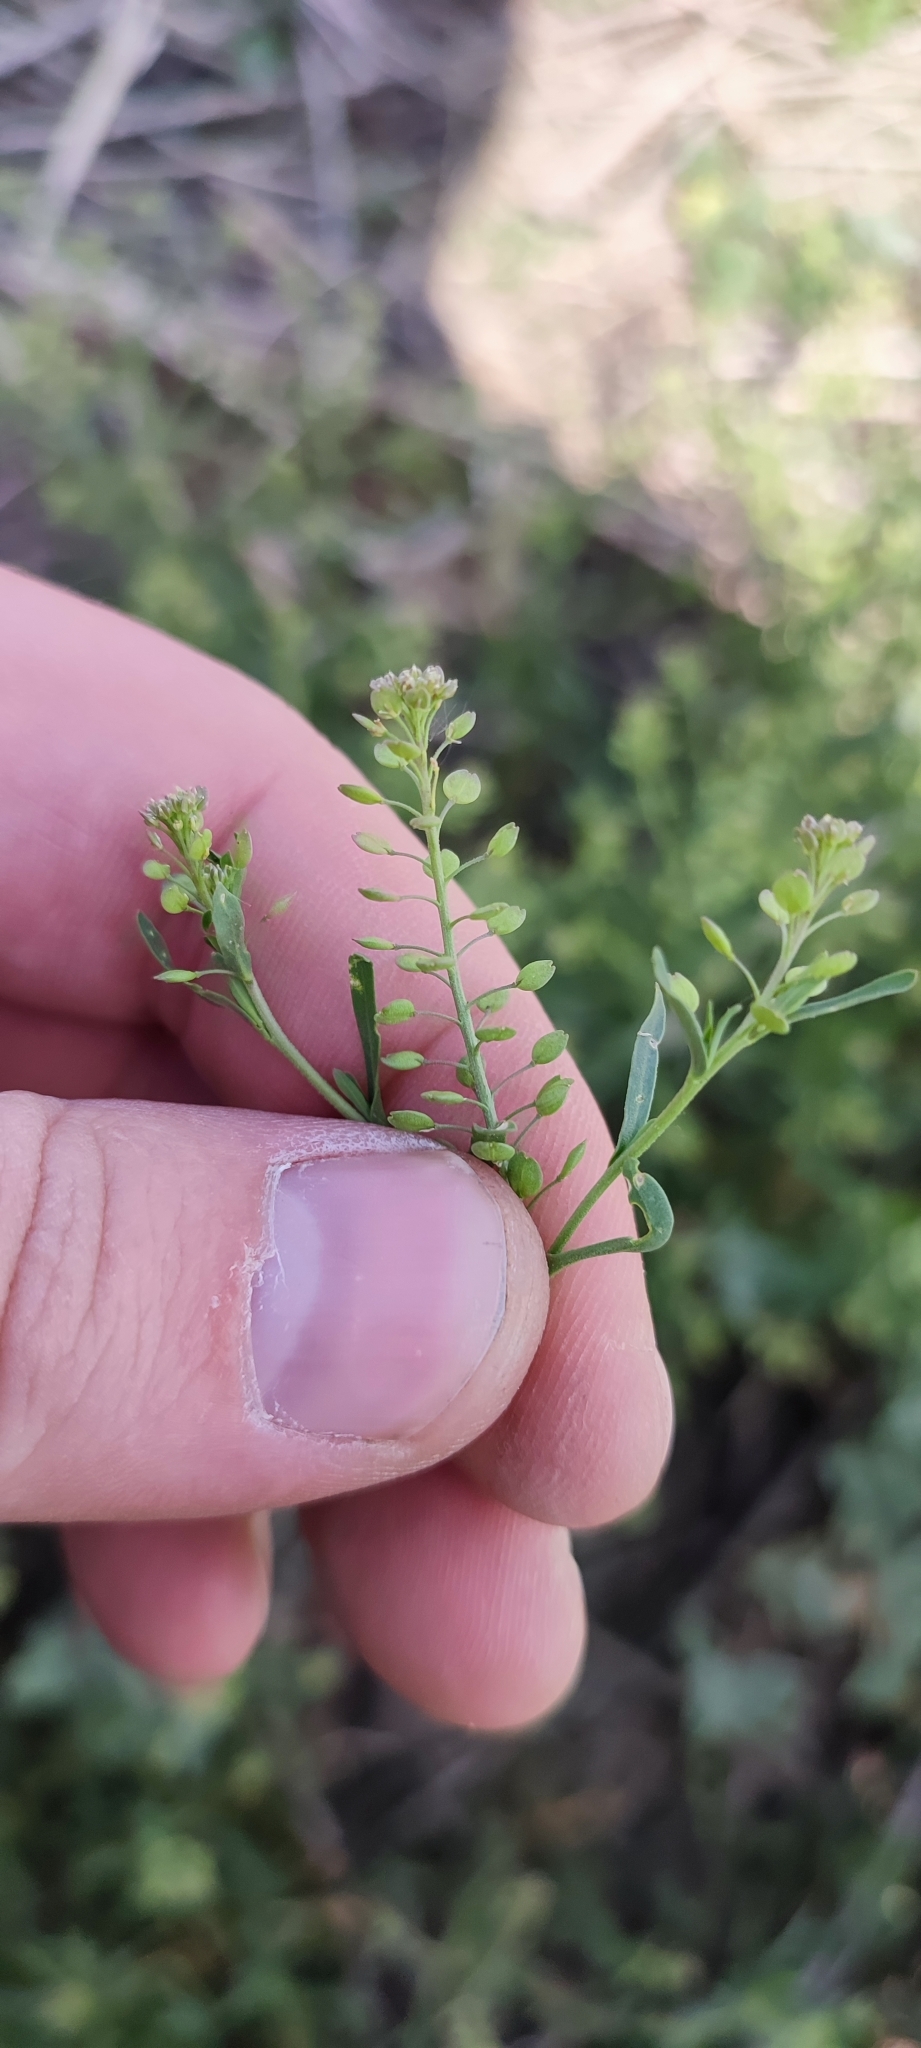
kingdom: Plantae
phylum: Tracheophyta
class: Magnoliopsida
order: Brassicales
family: Brassicaceae
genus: Lepidium
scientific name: Lepidium ruderale
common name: Narrow-leaved pepperwort
